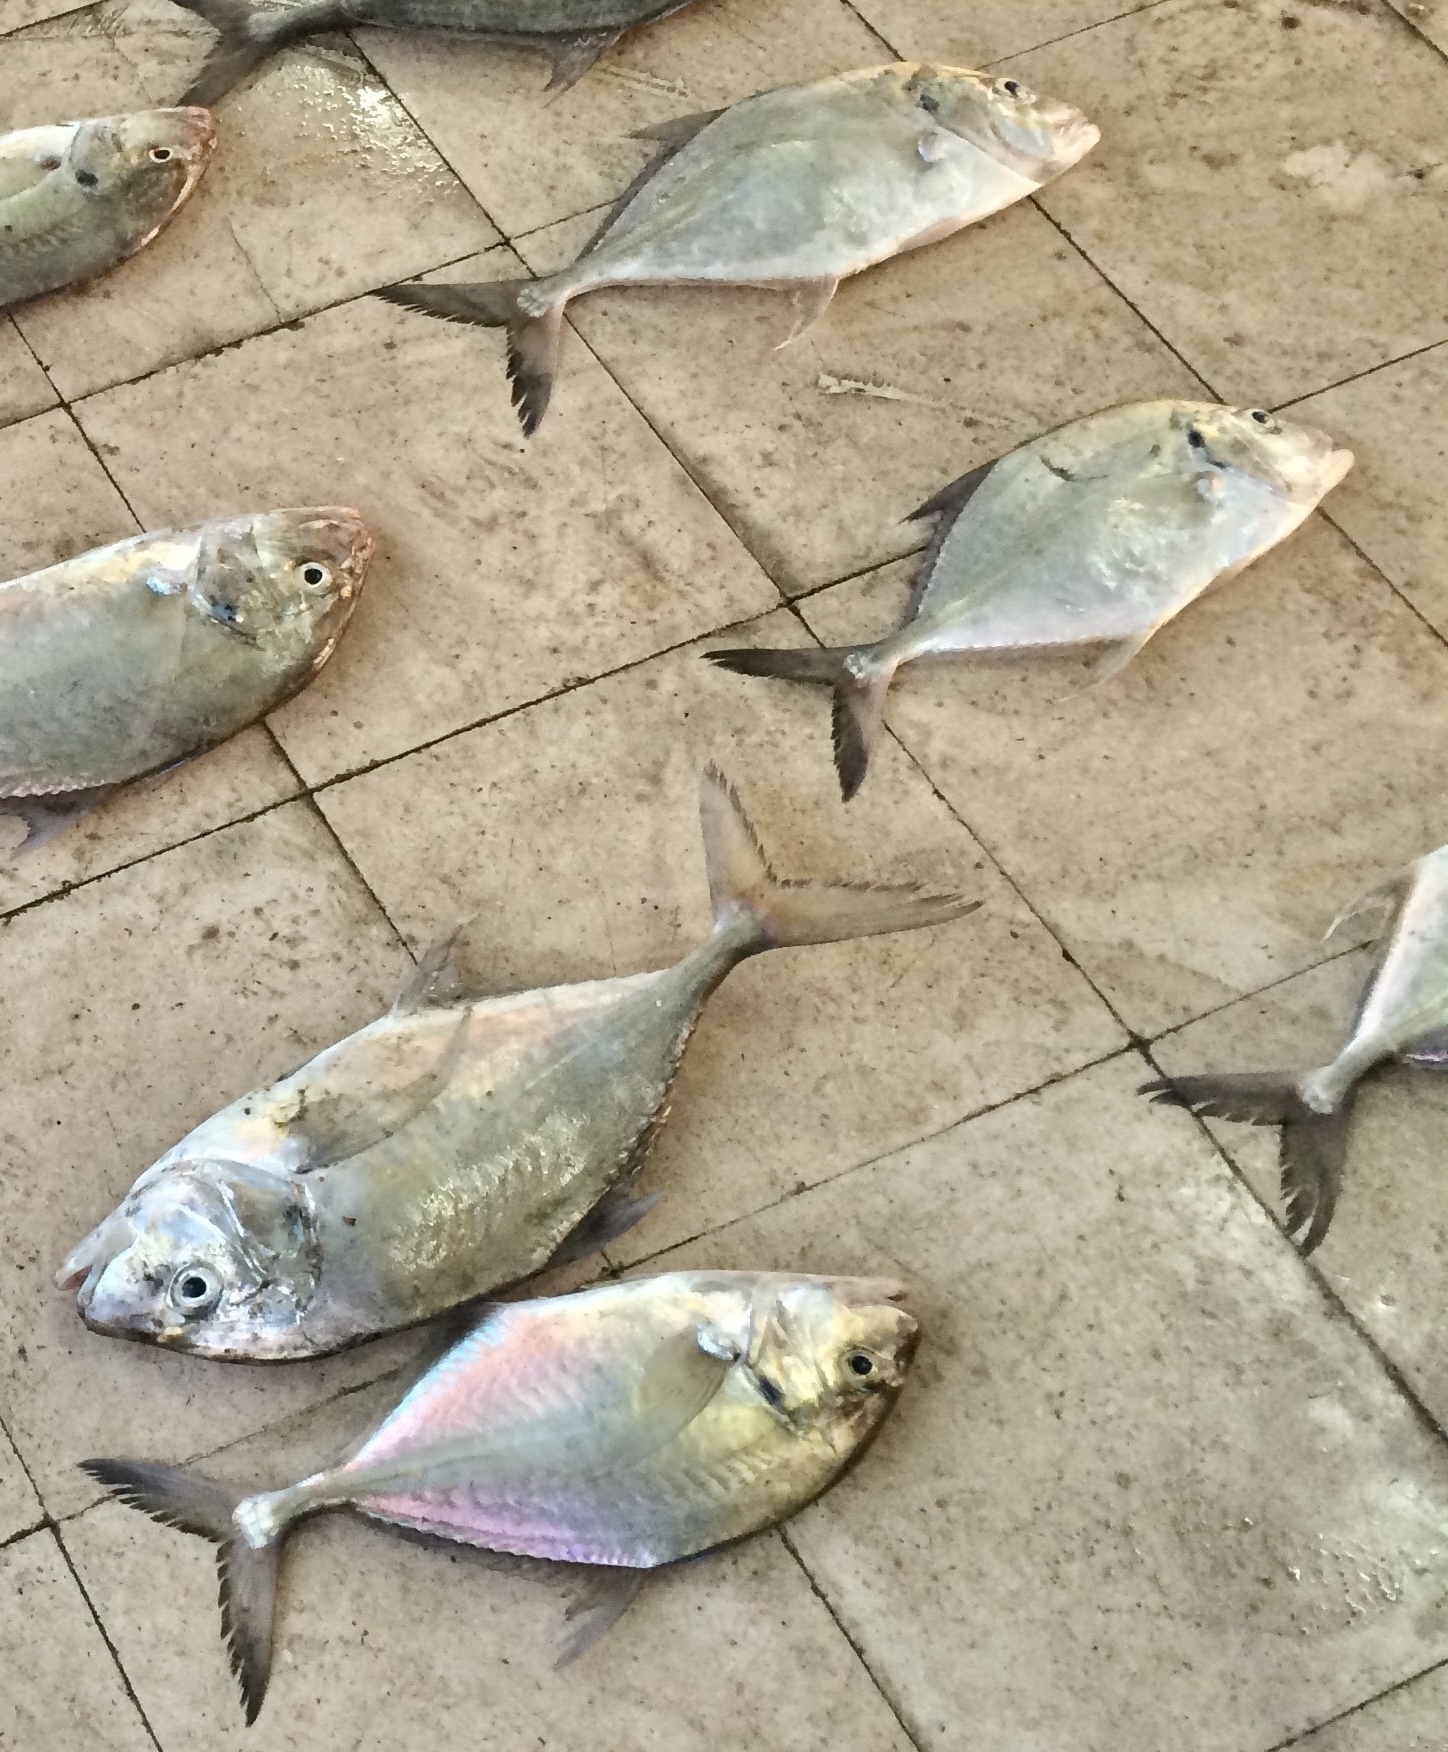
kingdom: Animalia
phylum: Chordata
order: Perciformes
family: Carangidae
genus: Platycaranx
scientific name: Platycaranx chrysophrys
